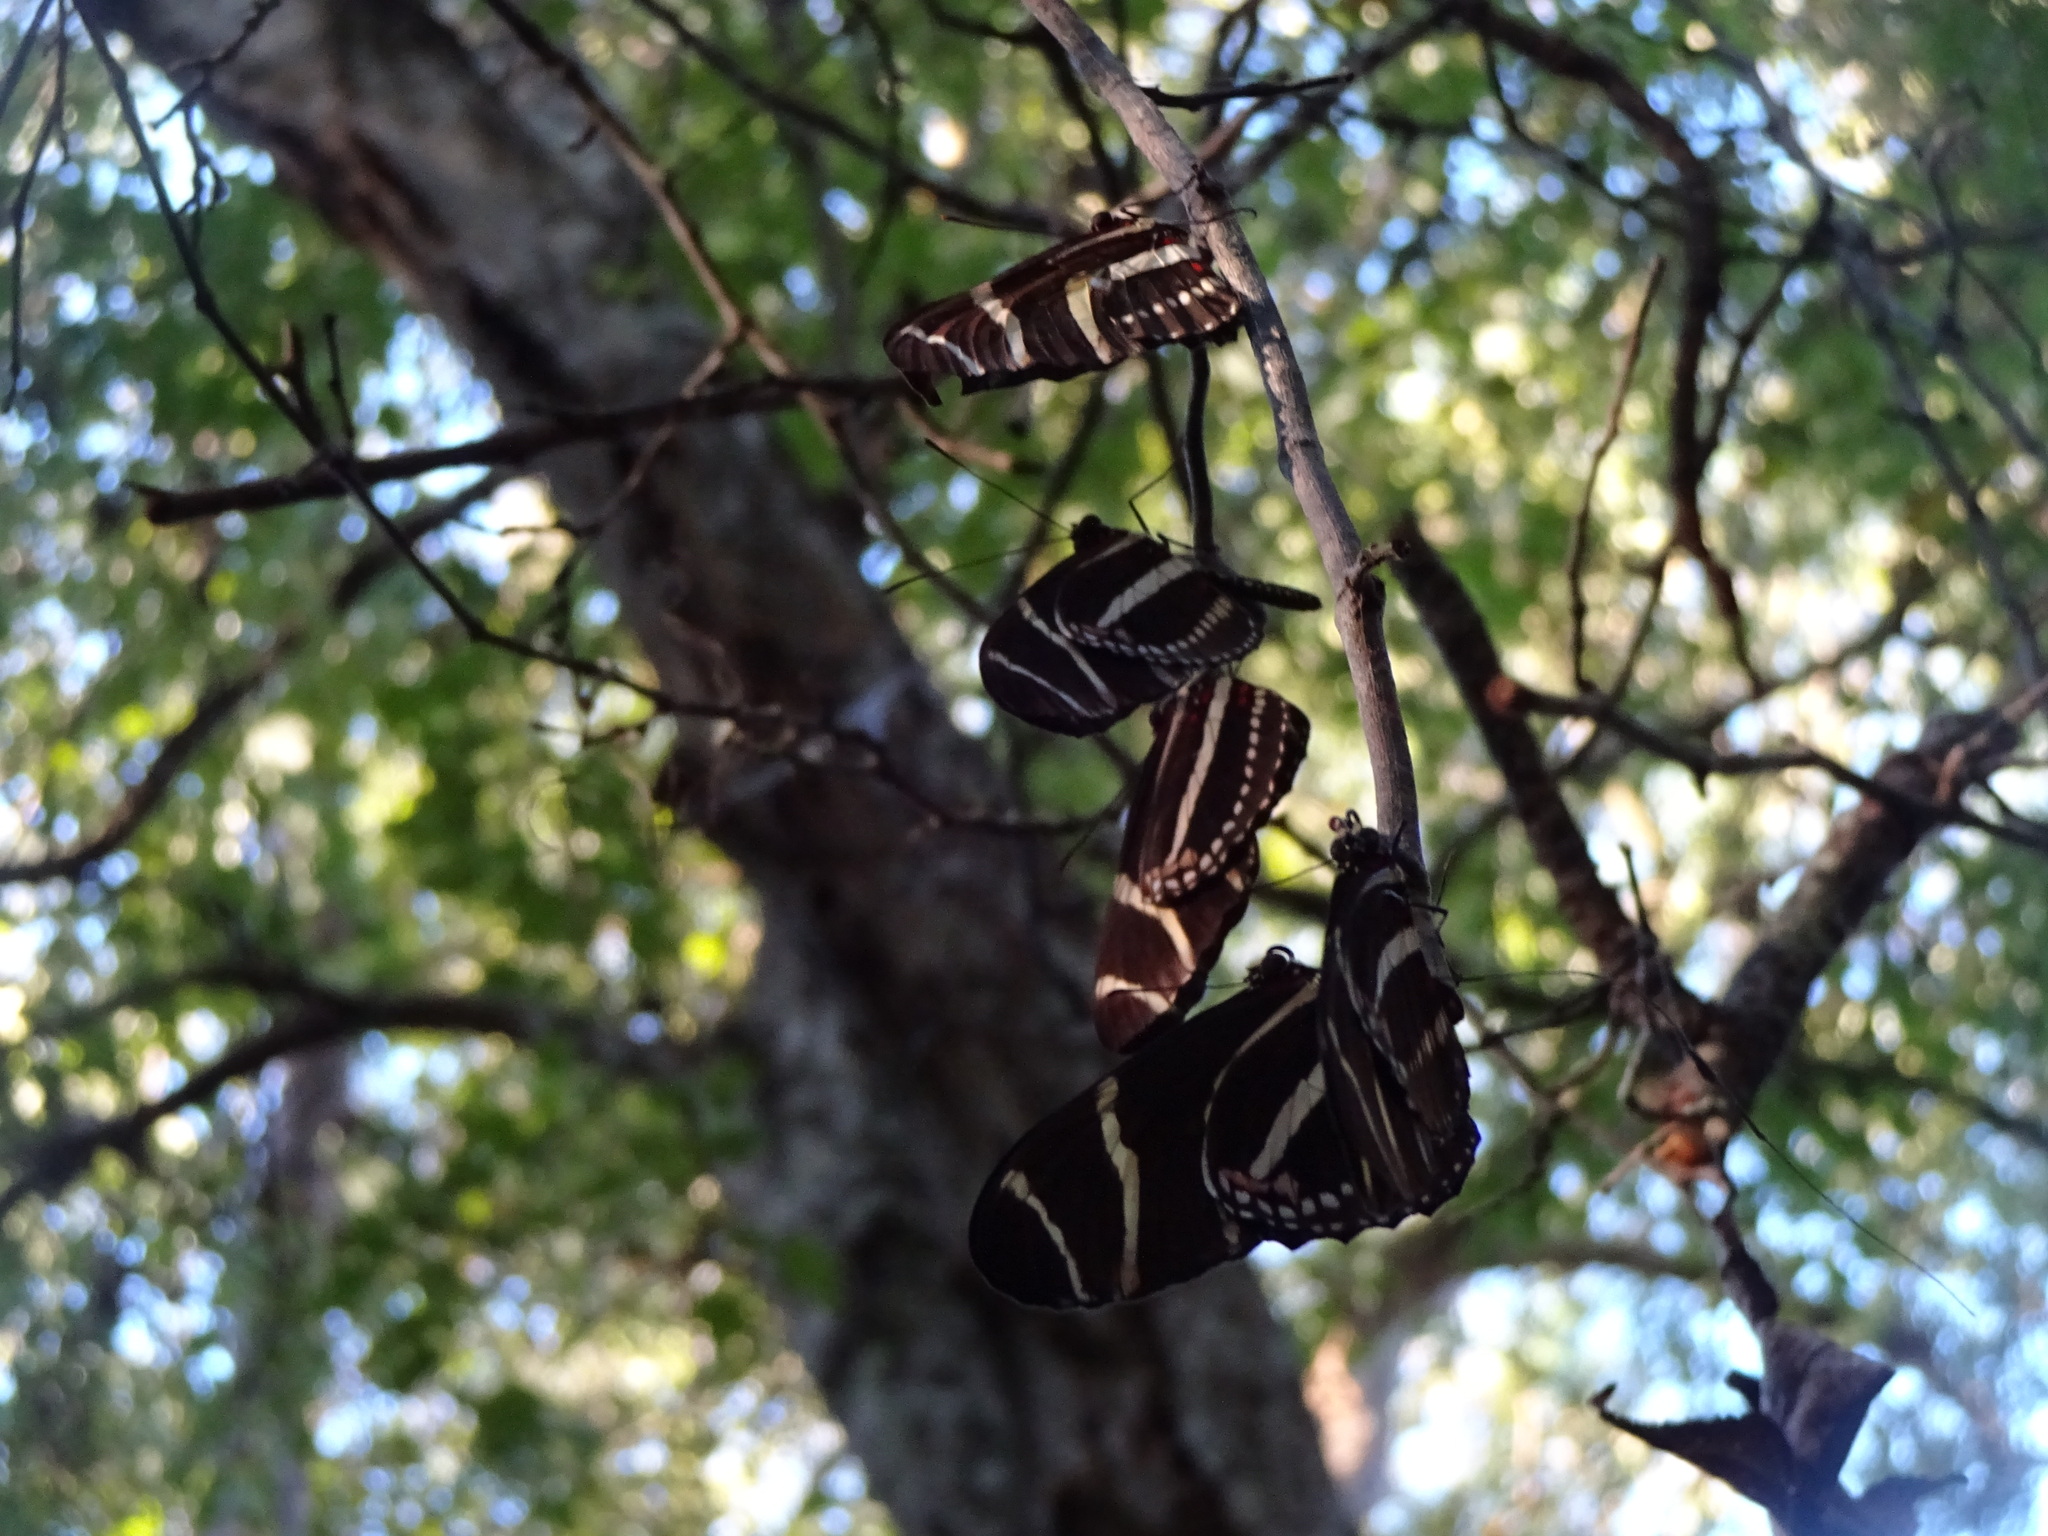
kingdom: Animalia
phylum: Arthropoda
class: Insecta
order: Lepidoptera
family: Nymphalidae
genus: Heliconius
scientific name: Heliconius charithonia
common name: Zebra long wing
